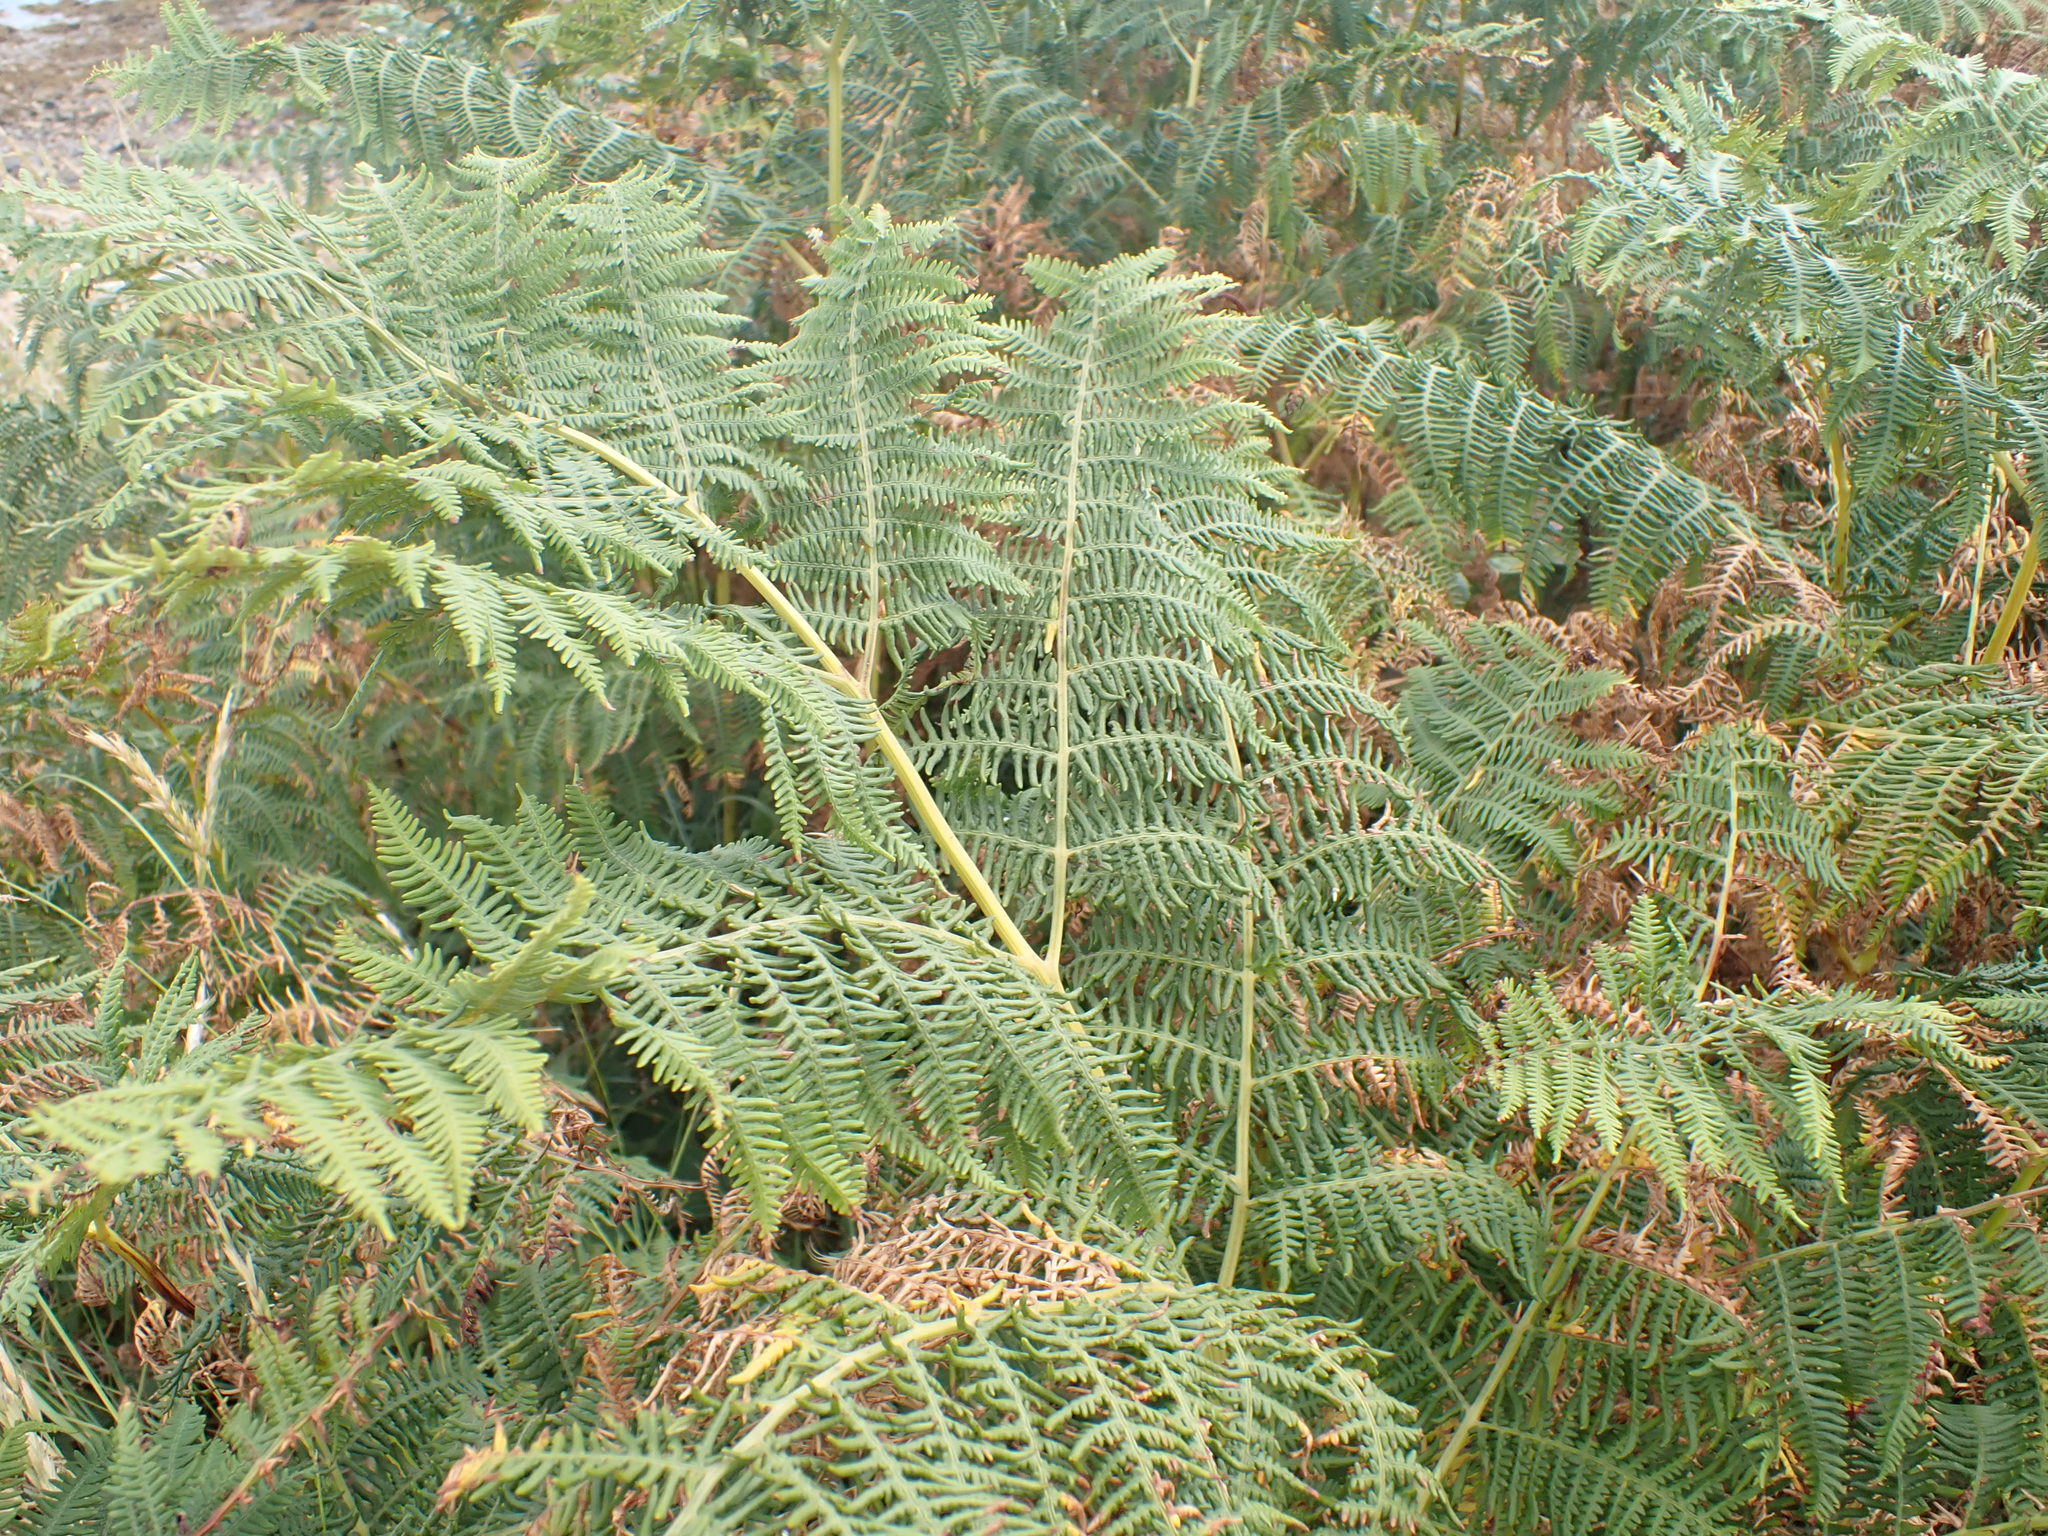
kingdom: Plantae
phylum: Tracheophyta
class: Polypodiopsida
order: Polypodiales
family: Dennstaedtiaceae
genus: Pteridium
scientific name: Pteridium aquilinum
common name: Bracken
